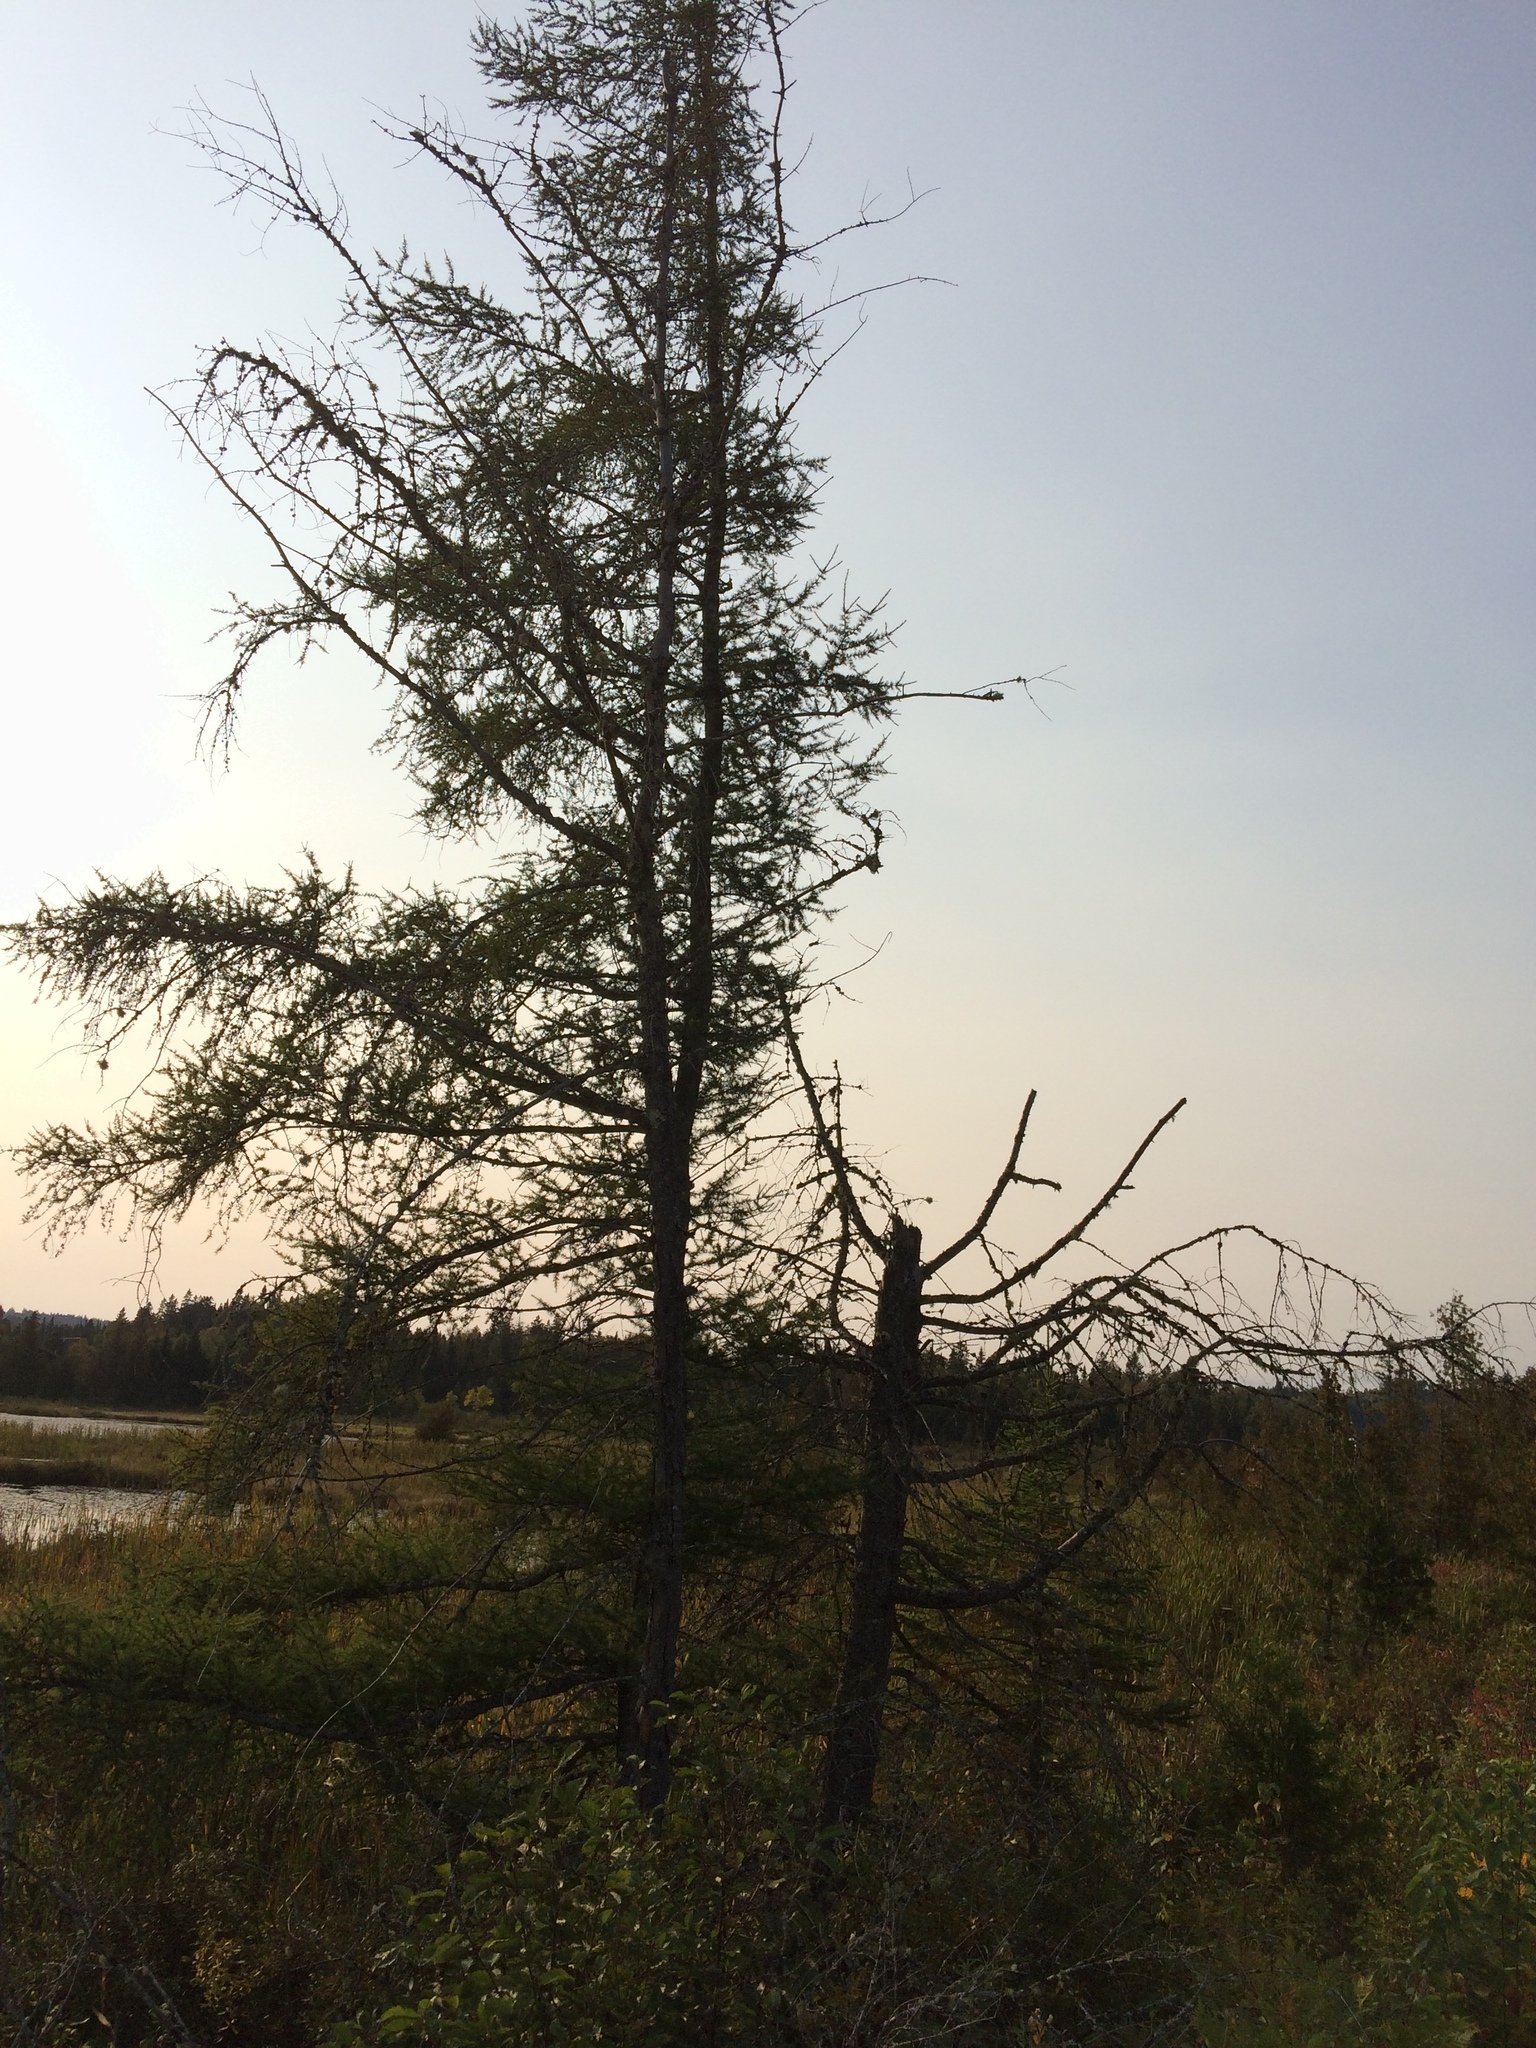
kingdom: Plantae
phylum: Tracheophyta
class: Pinopsida
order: Pinales
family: Pinaceae
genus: Larix
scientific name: Larix laricina
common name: American larch
